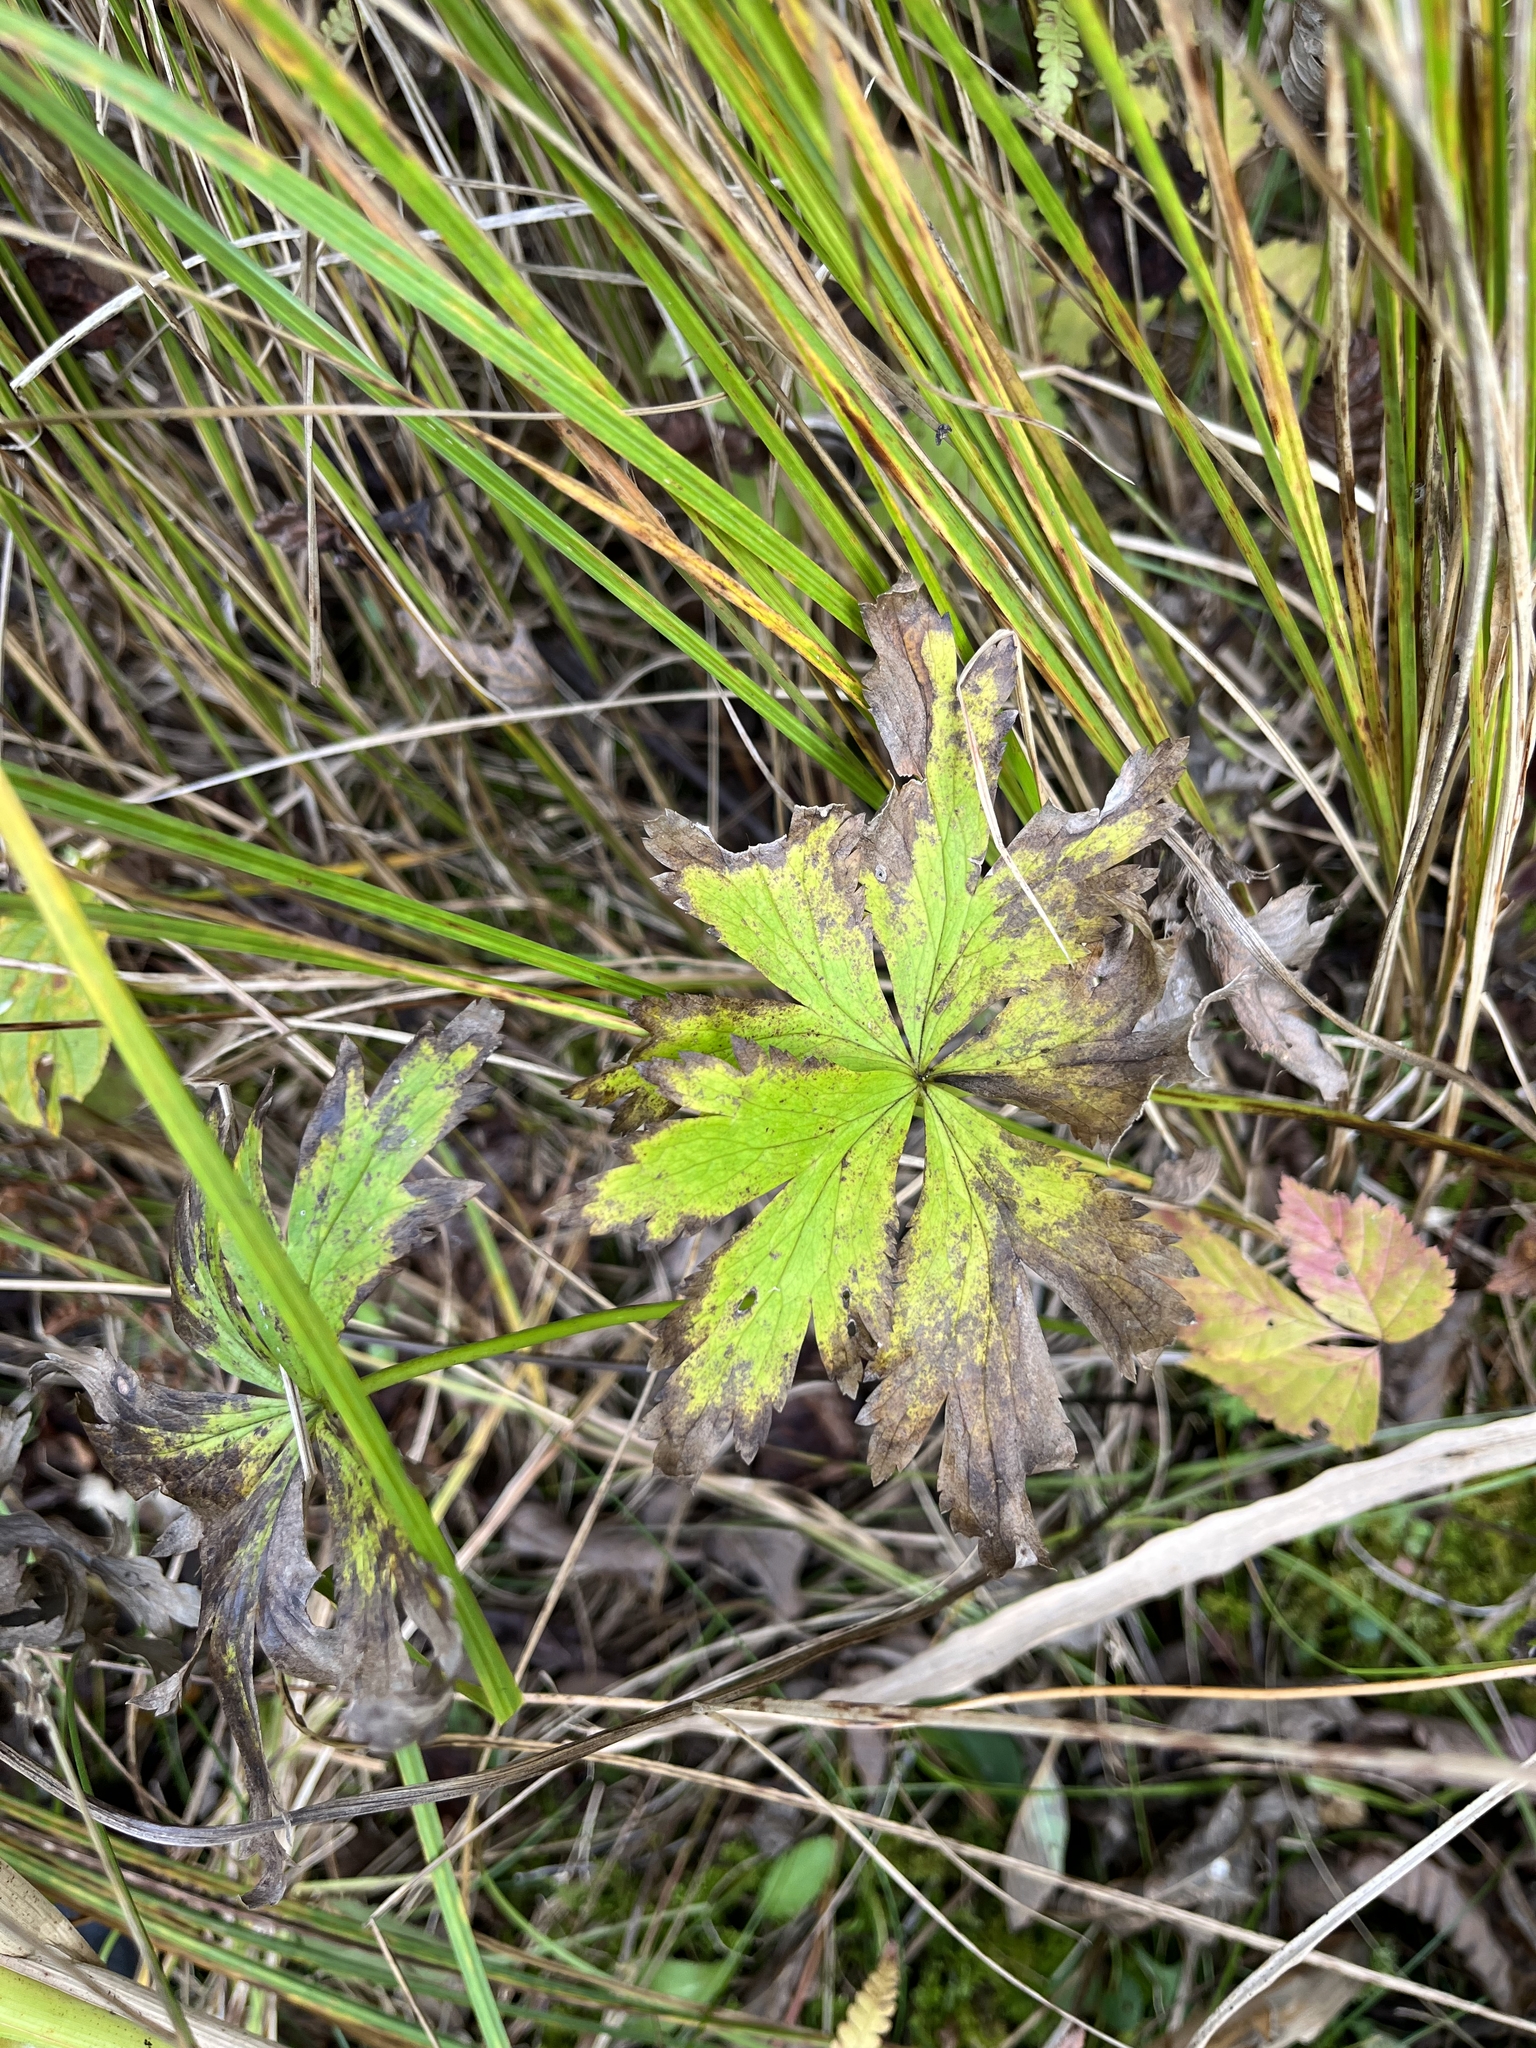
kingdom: Plantae
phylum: Tracheophyta
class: Magnoliopsida
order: Ranunculales
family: Ranunculaceae
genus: Trollius
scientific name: Trollius laxus
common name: American globeflower
